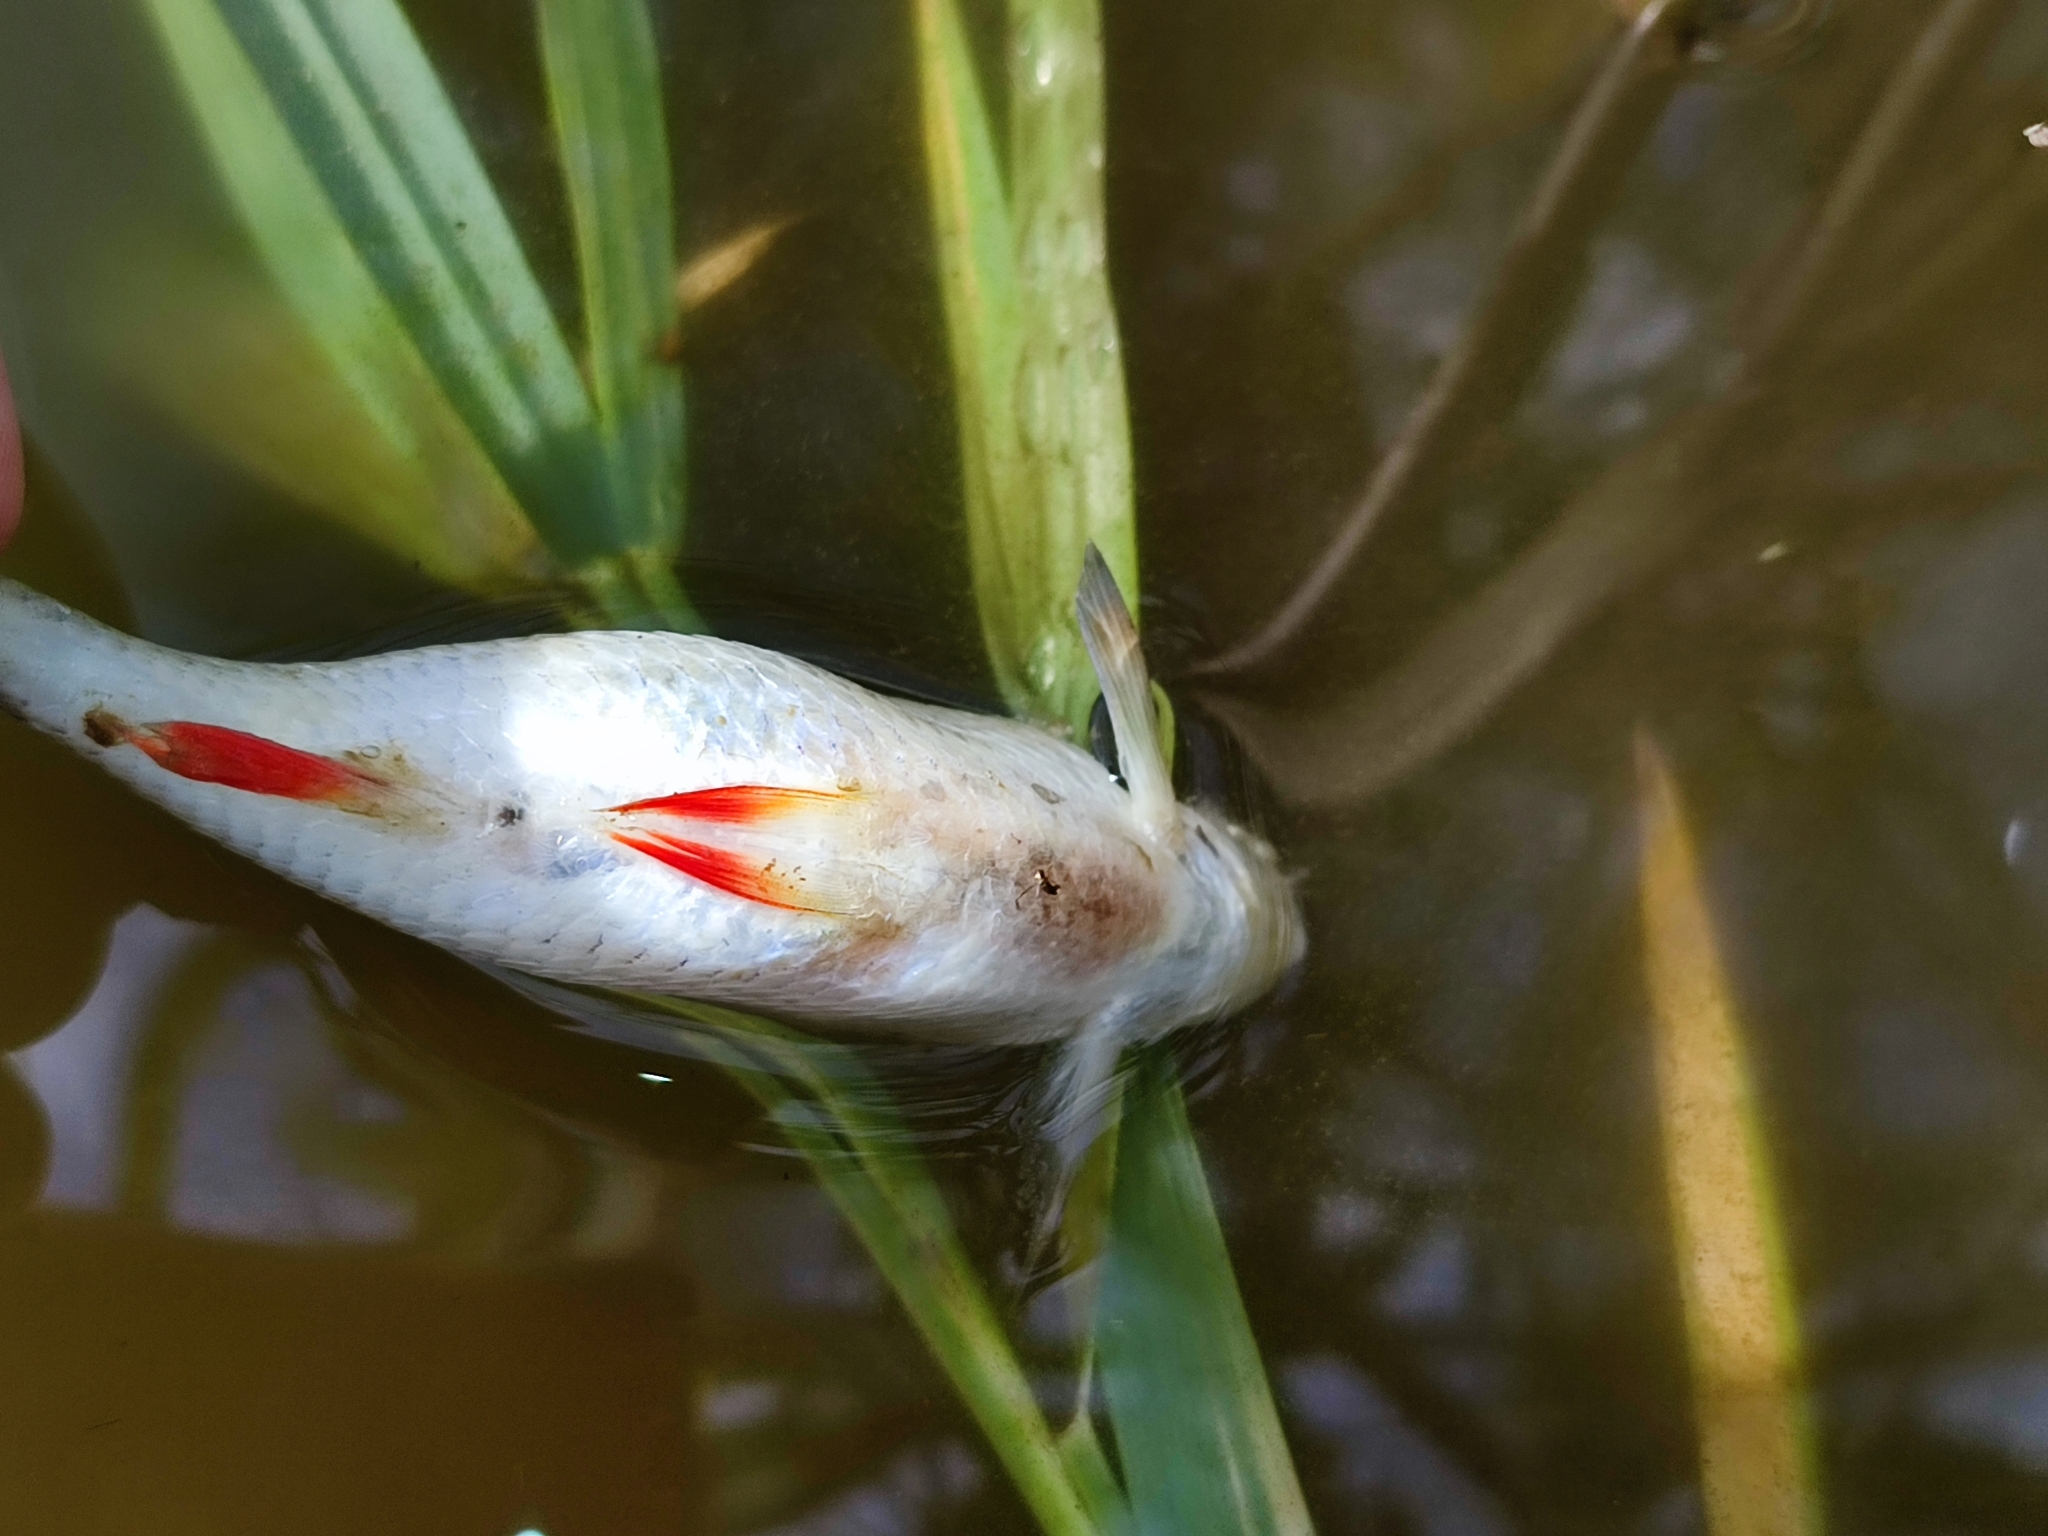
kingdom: Animalia
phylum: Chordata
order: Cypriniformes
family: Cyprinidae
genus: Scardinius
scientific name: Scardinius erythrophthalmus
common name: Rudd
